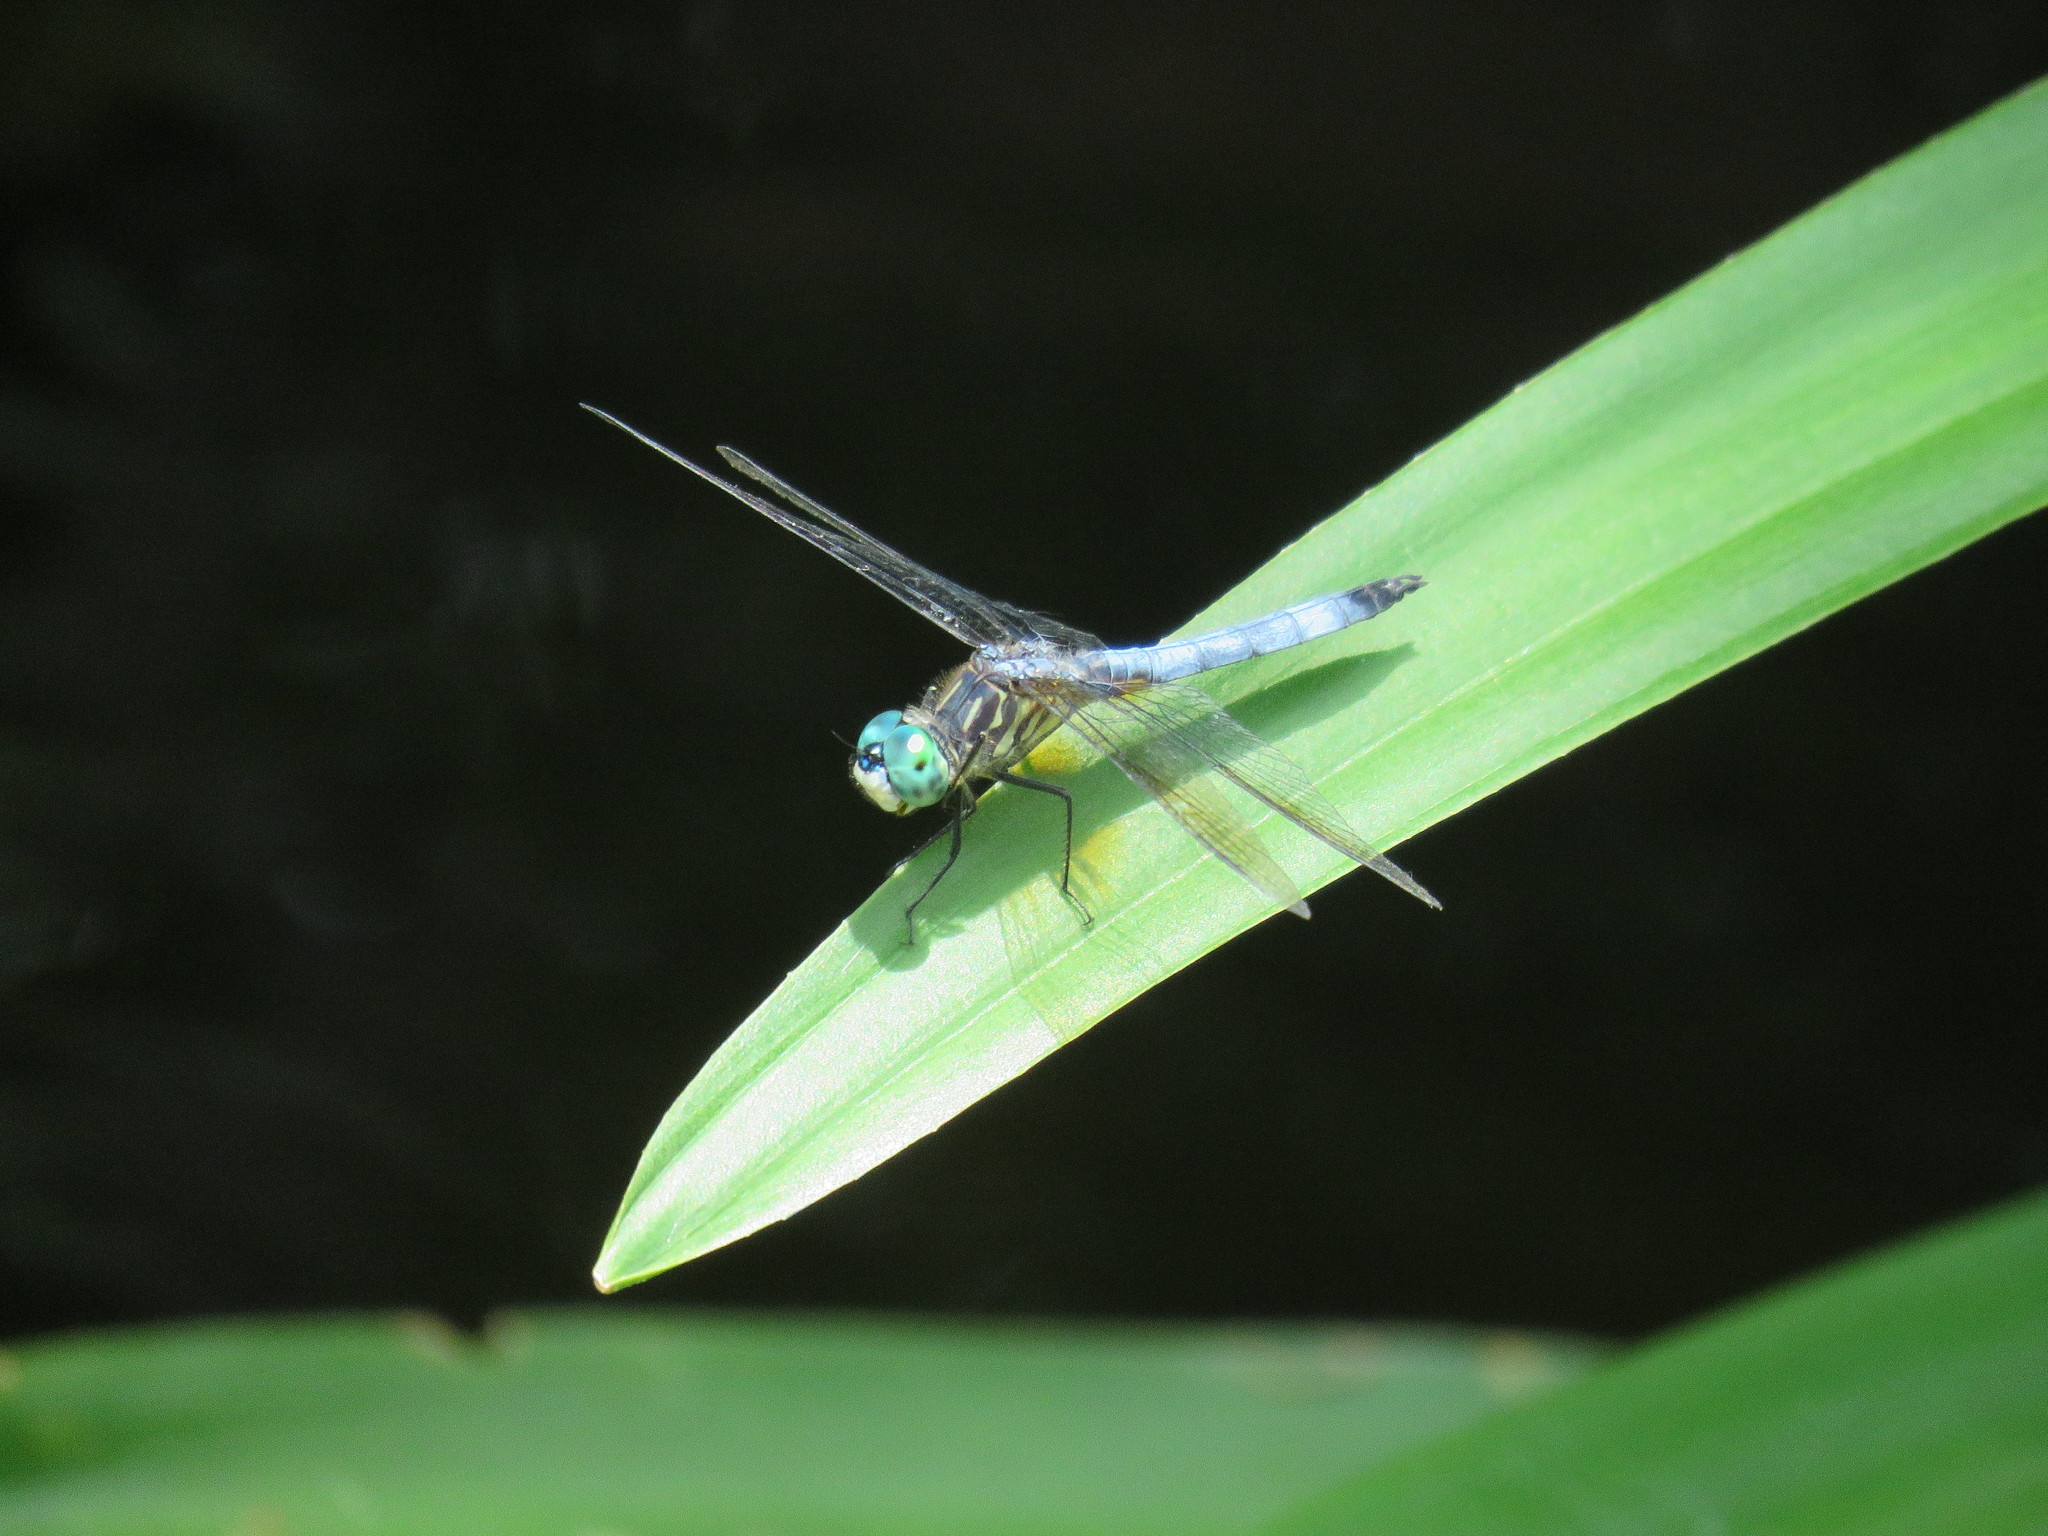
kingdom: Animalia
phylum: Arthropoda
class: Insecta
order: Odonata
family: Libellulidae
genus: Pachydiplax
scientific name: Pachydiplax longipennis
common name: Blue dasher
